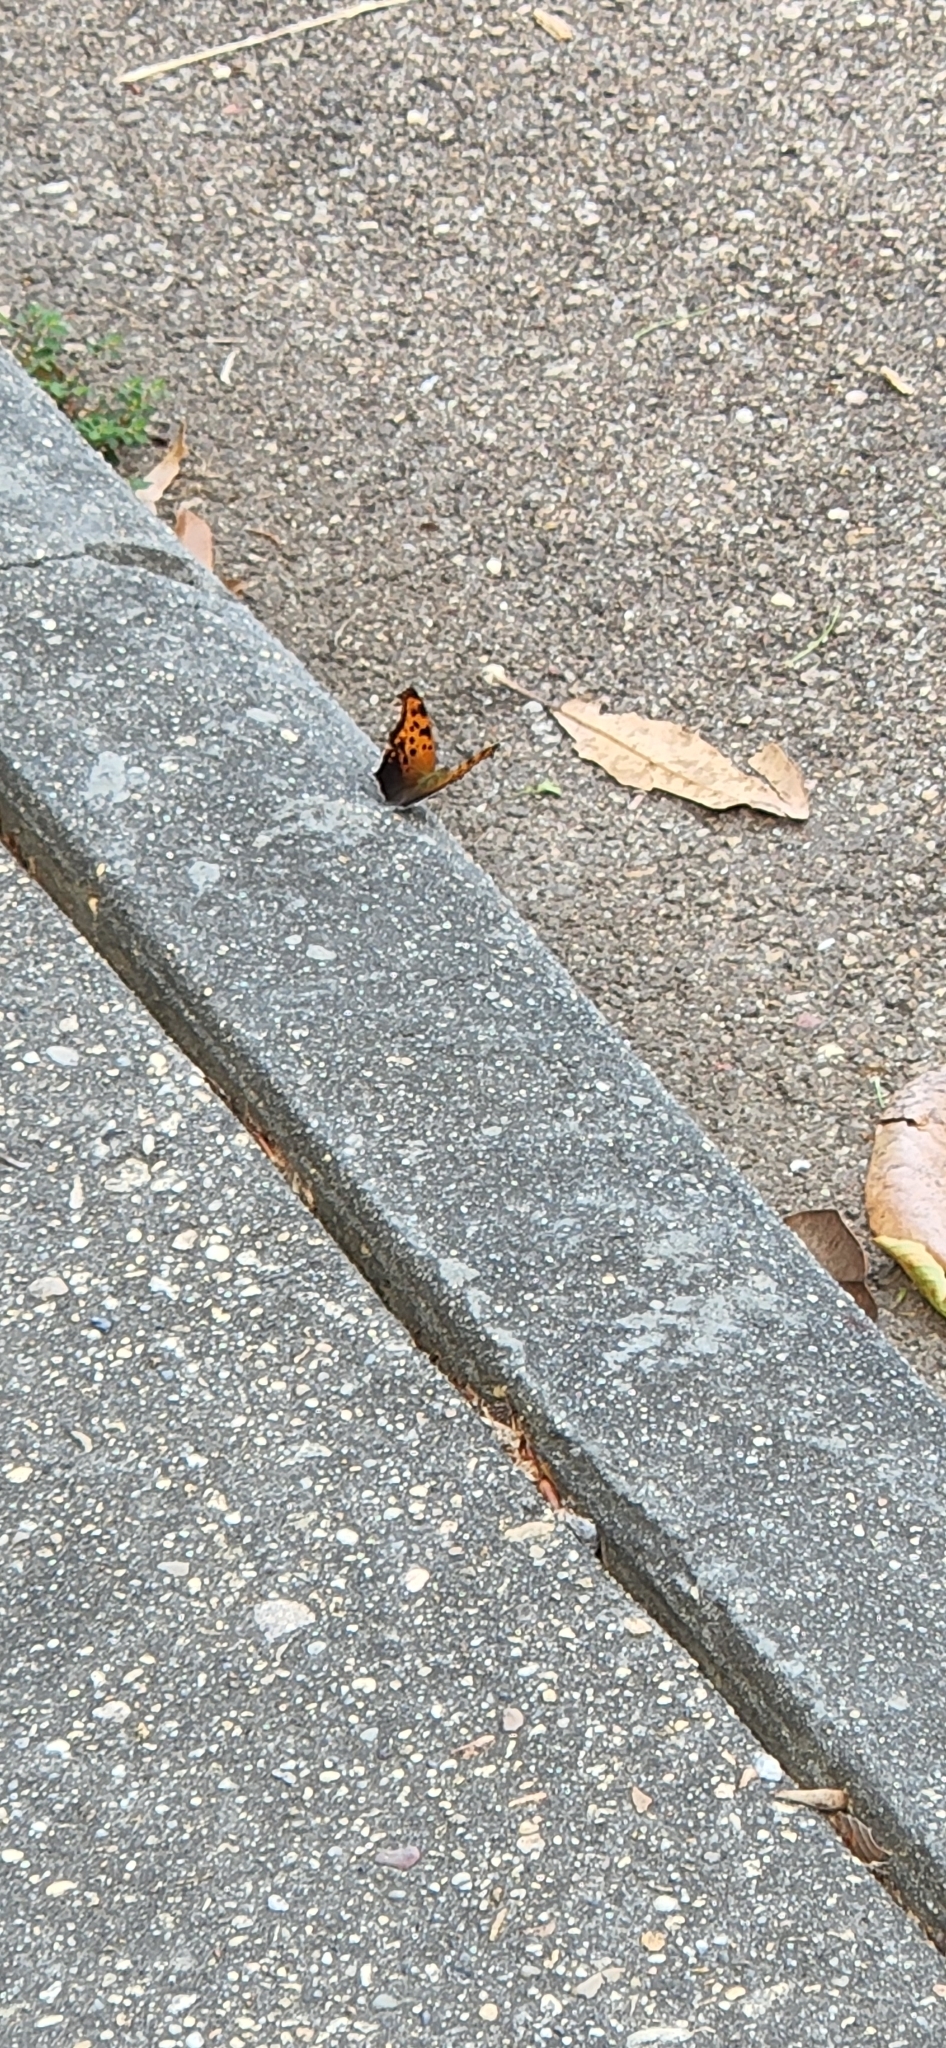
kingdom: Animalia
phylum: Arthropoda
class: Insecta
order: Lepidoptera
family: Nymphalidae
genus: Polygonia
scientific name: Polygonia interrogationis
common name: Question mark
